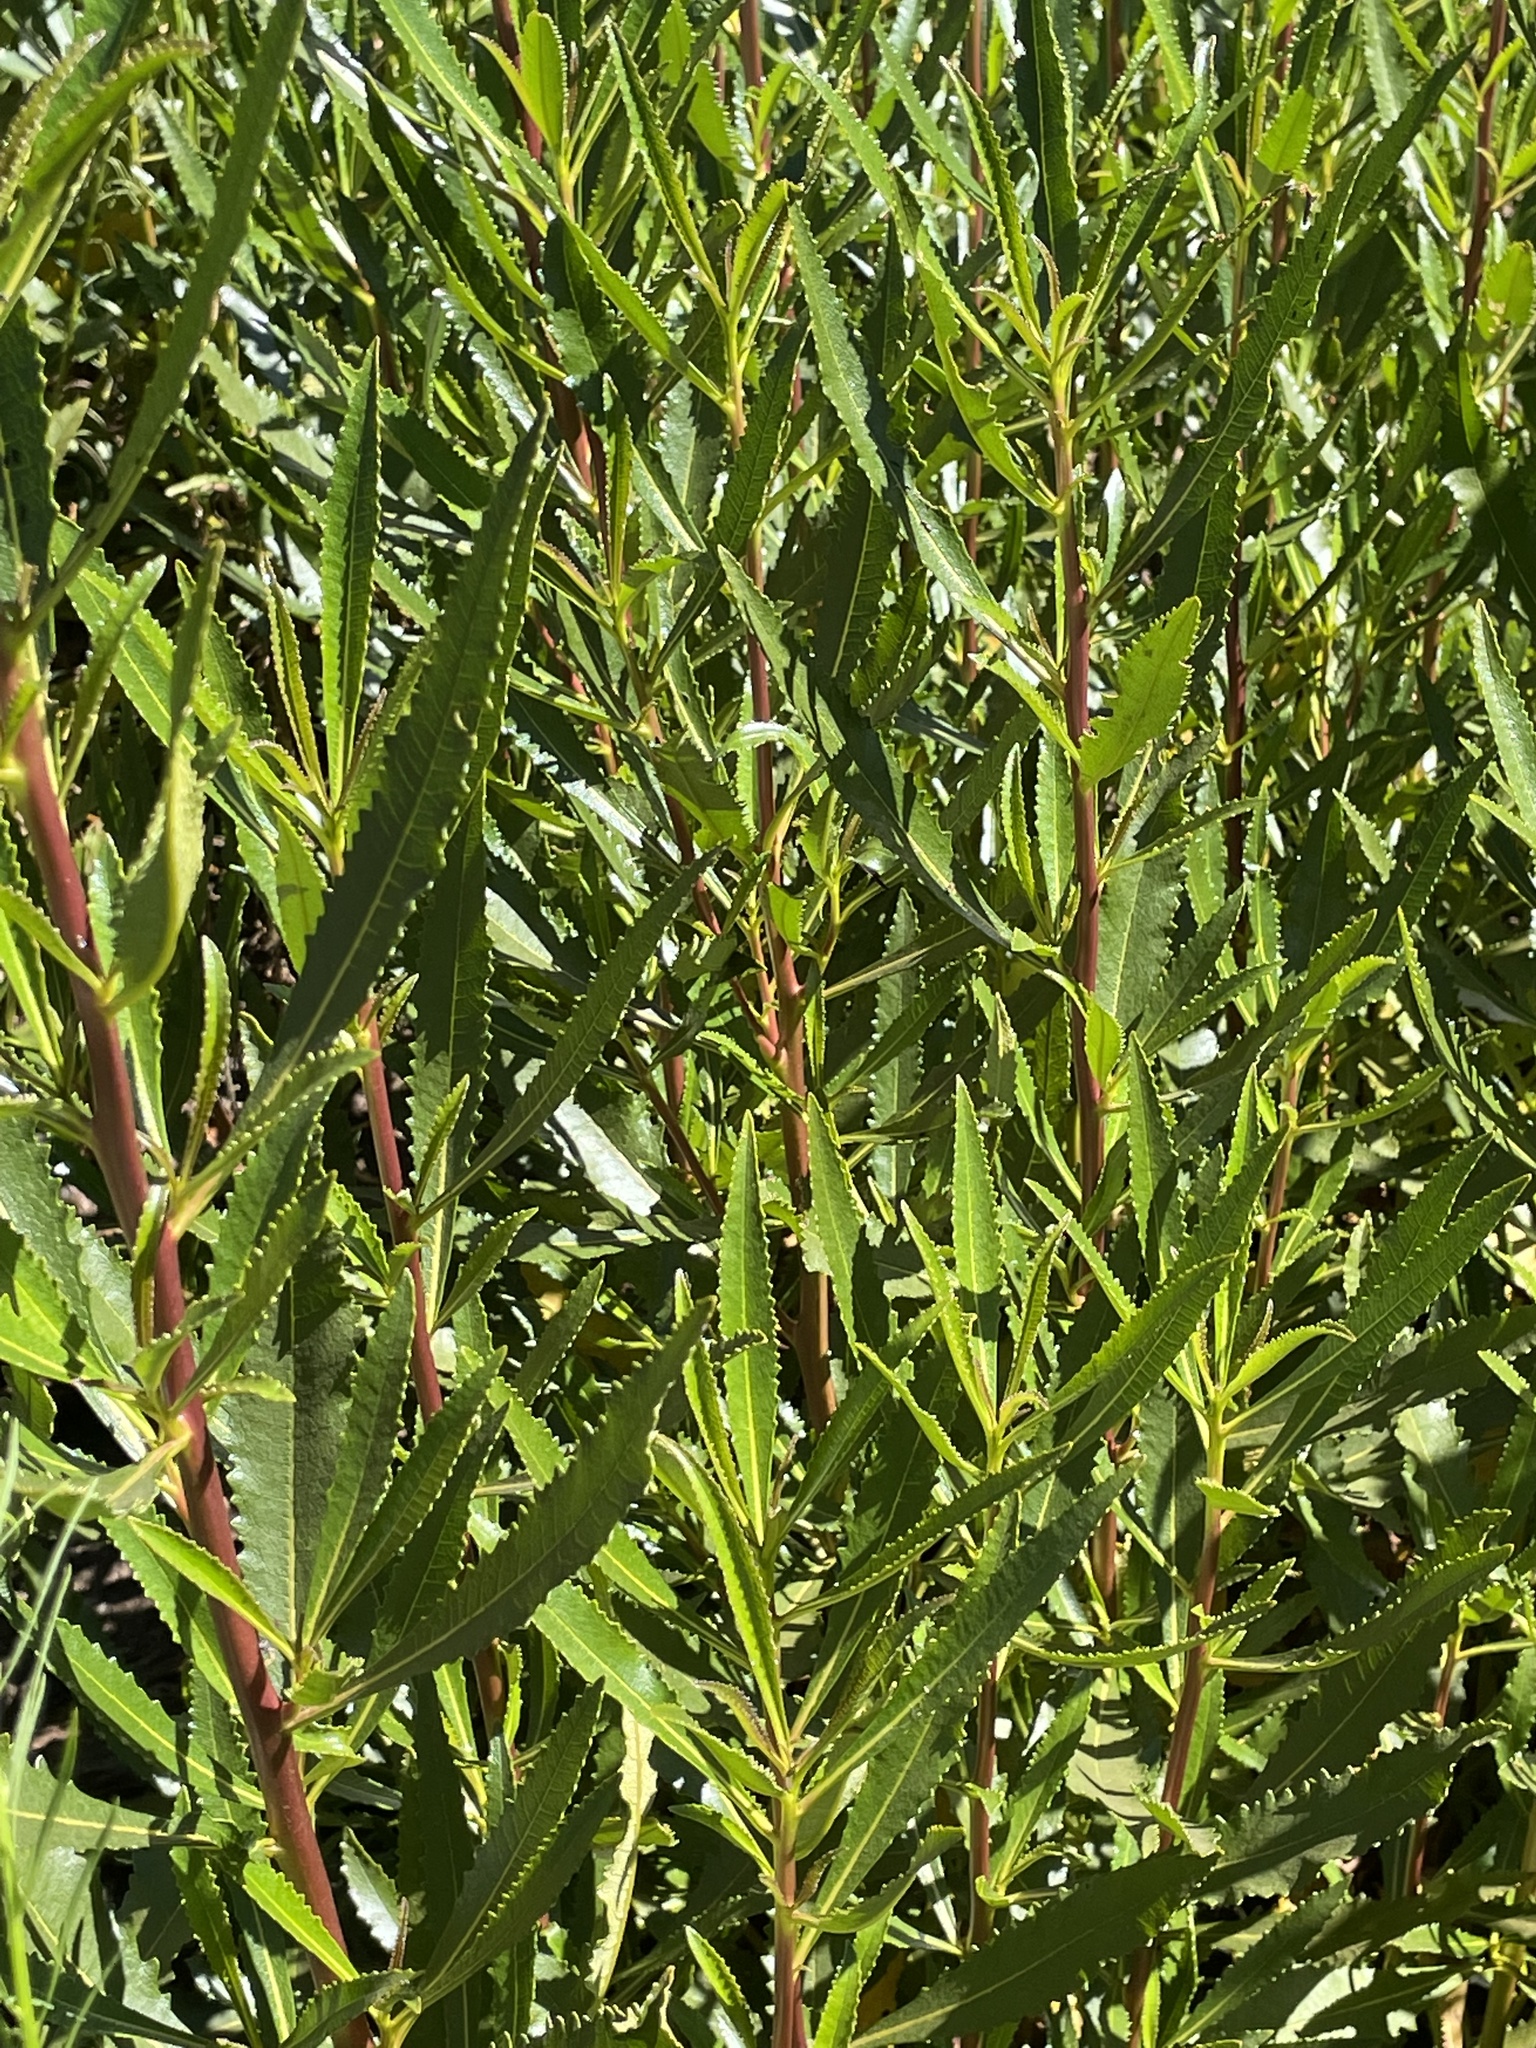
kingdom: Plantae
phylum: Tracheophyta
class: Magnoliopsida
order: Boraginales
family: Namaceae
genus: Eriodictyon
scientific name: Eriodictyon californicum
